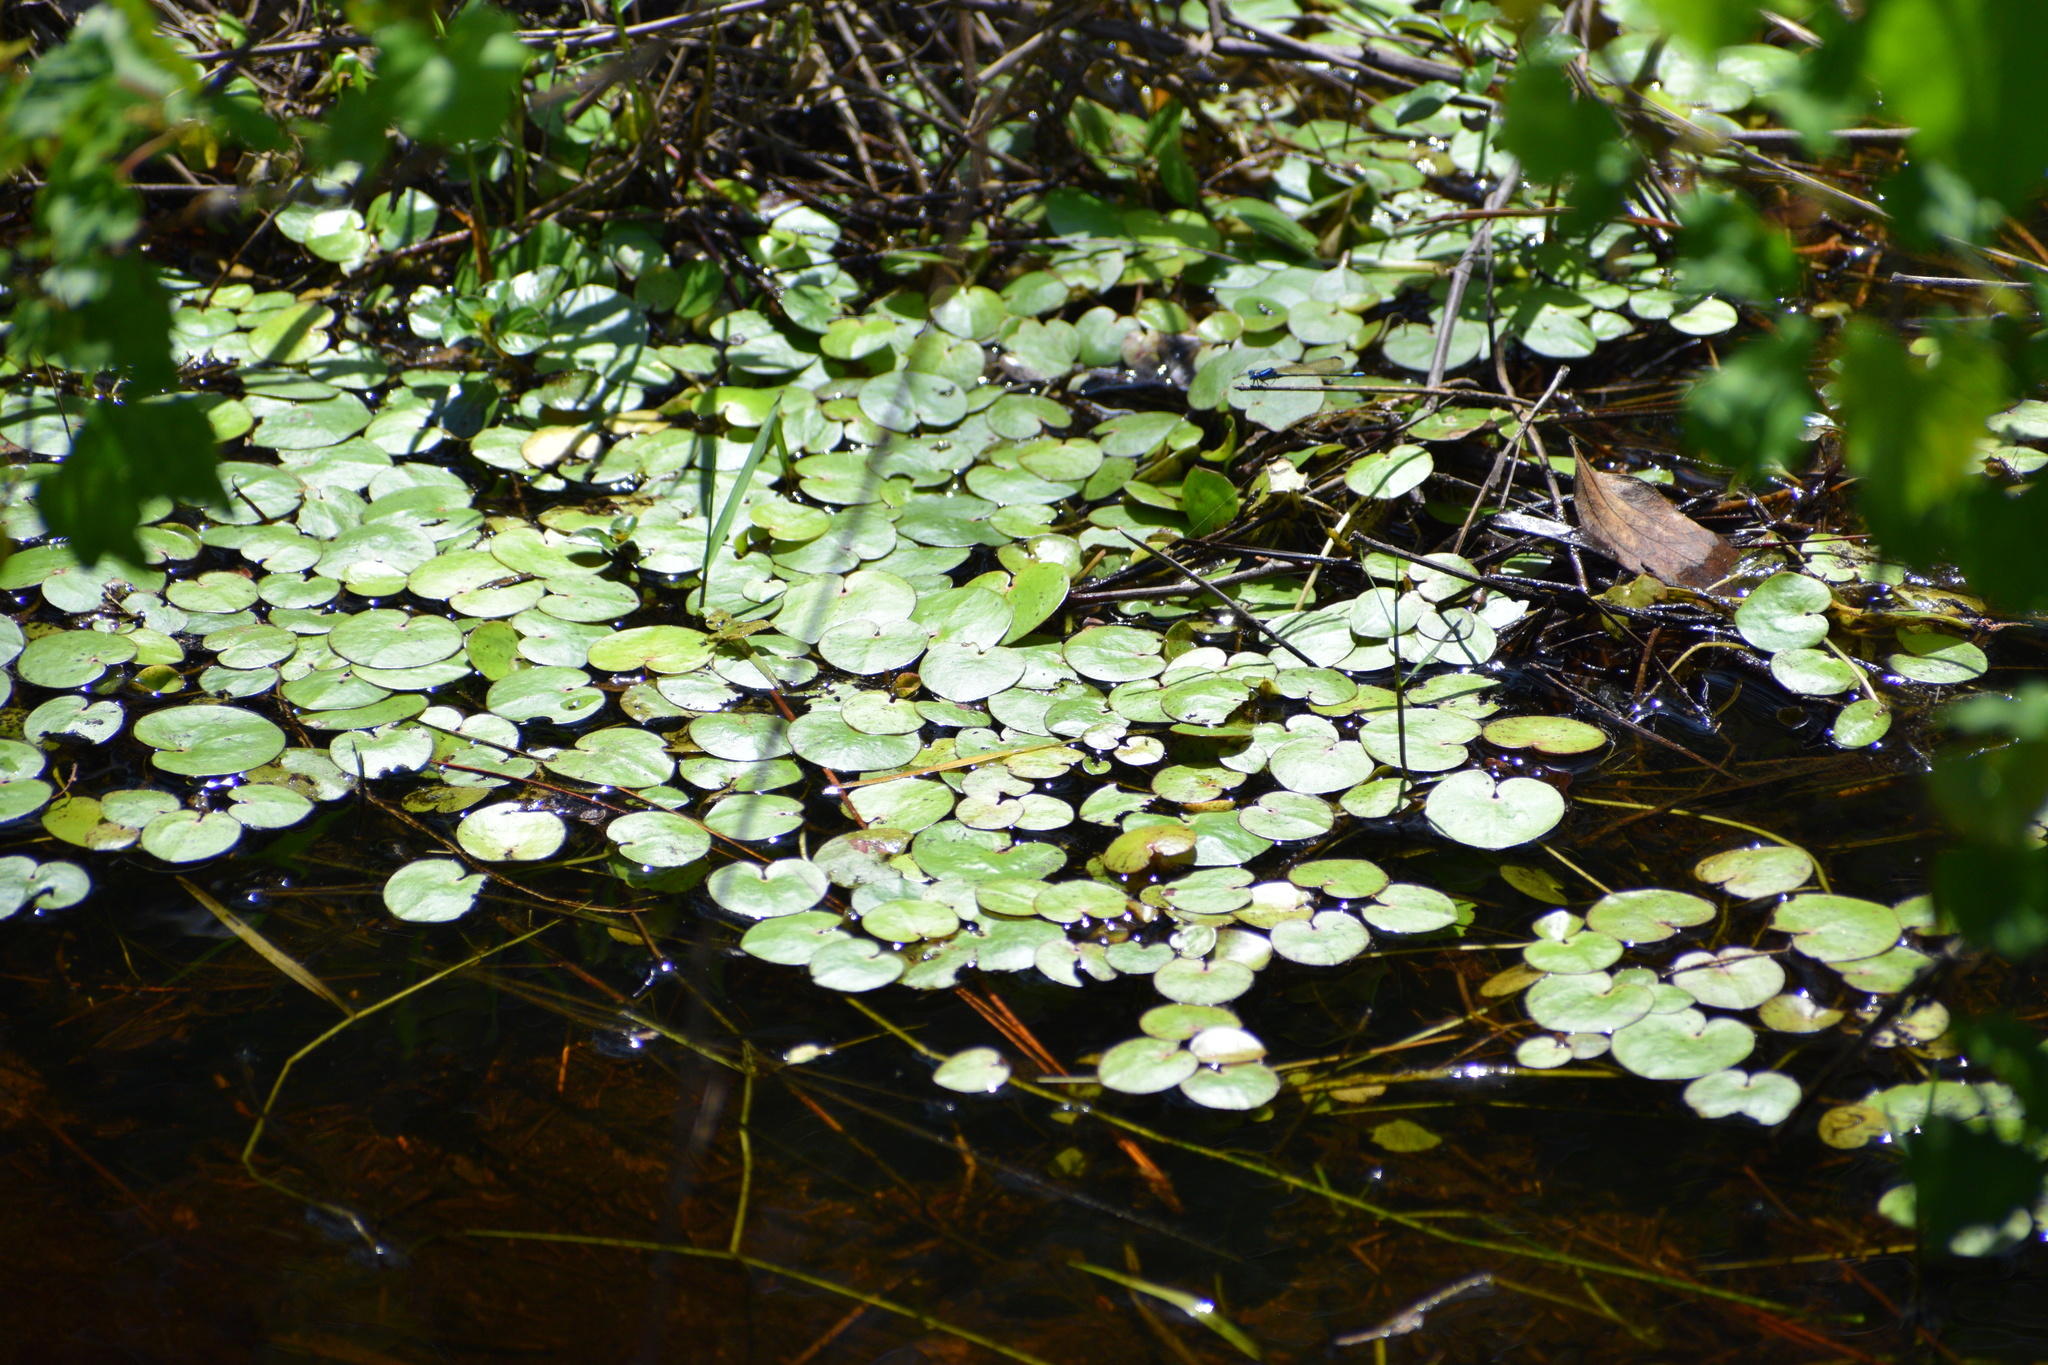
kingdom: Plantae
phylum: Tracheophyta
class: Liliopsida
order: Alismatales
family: Hydrocharitaceae
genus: Hydrocharis
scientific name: Hydrocharis spongia
